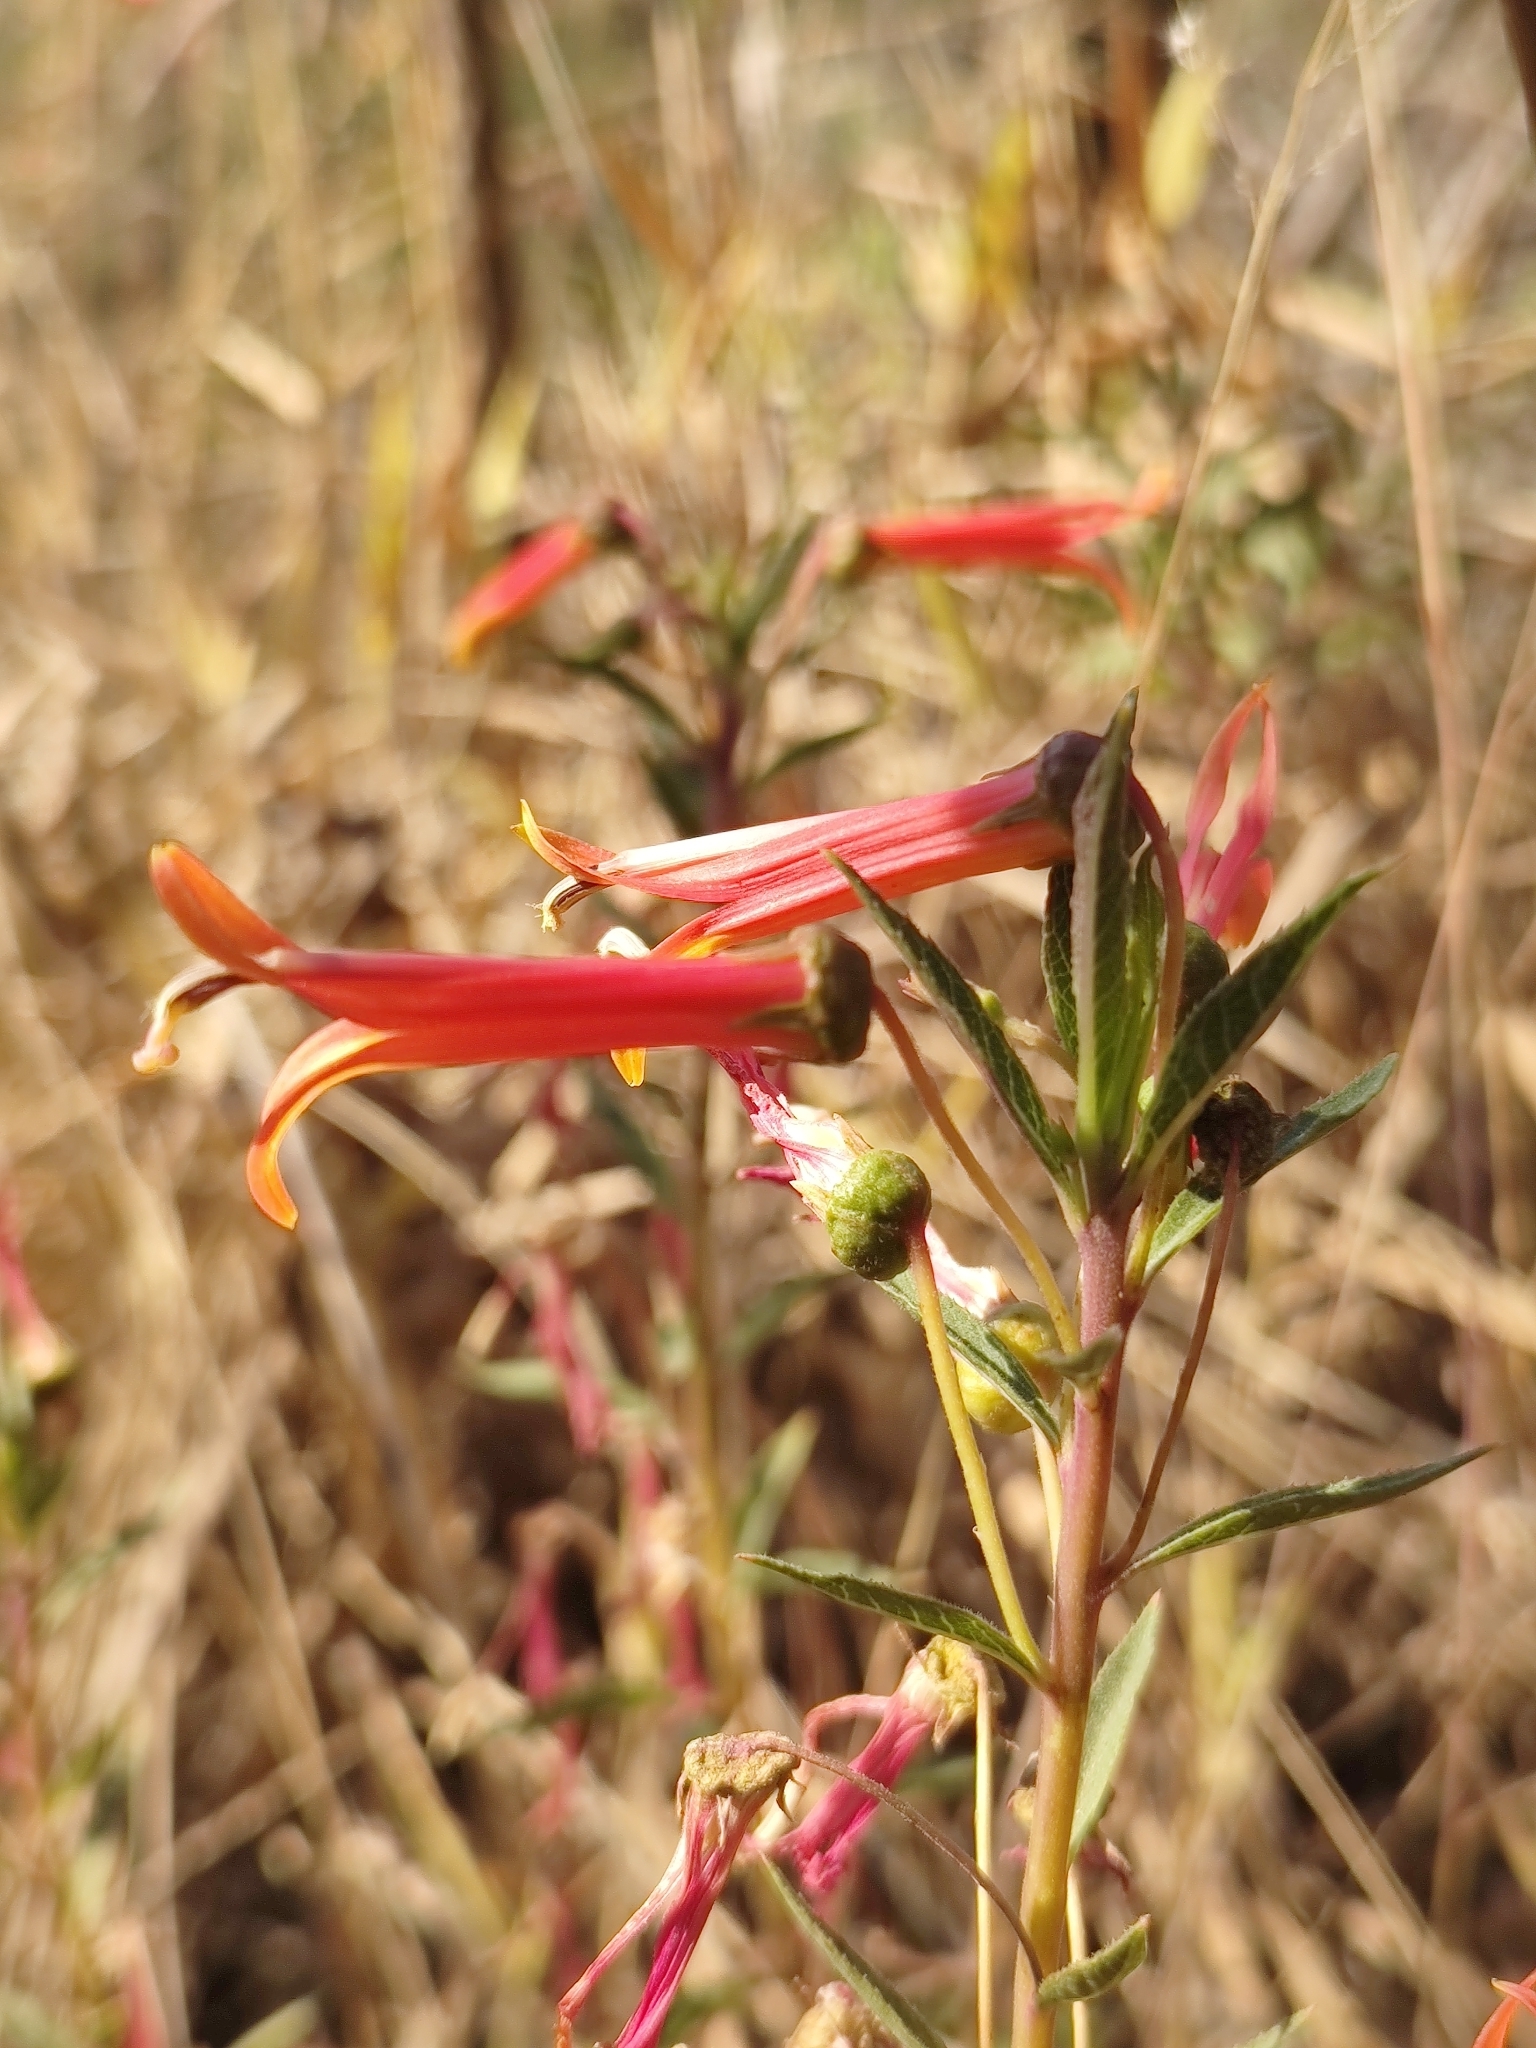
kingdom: Plantae
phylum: Tracheophyta
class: Magnoliopsida
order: Asterales
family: Campanulaceae
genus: Lobelia
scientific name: Lobelia laxiflora
